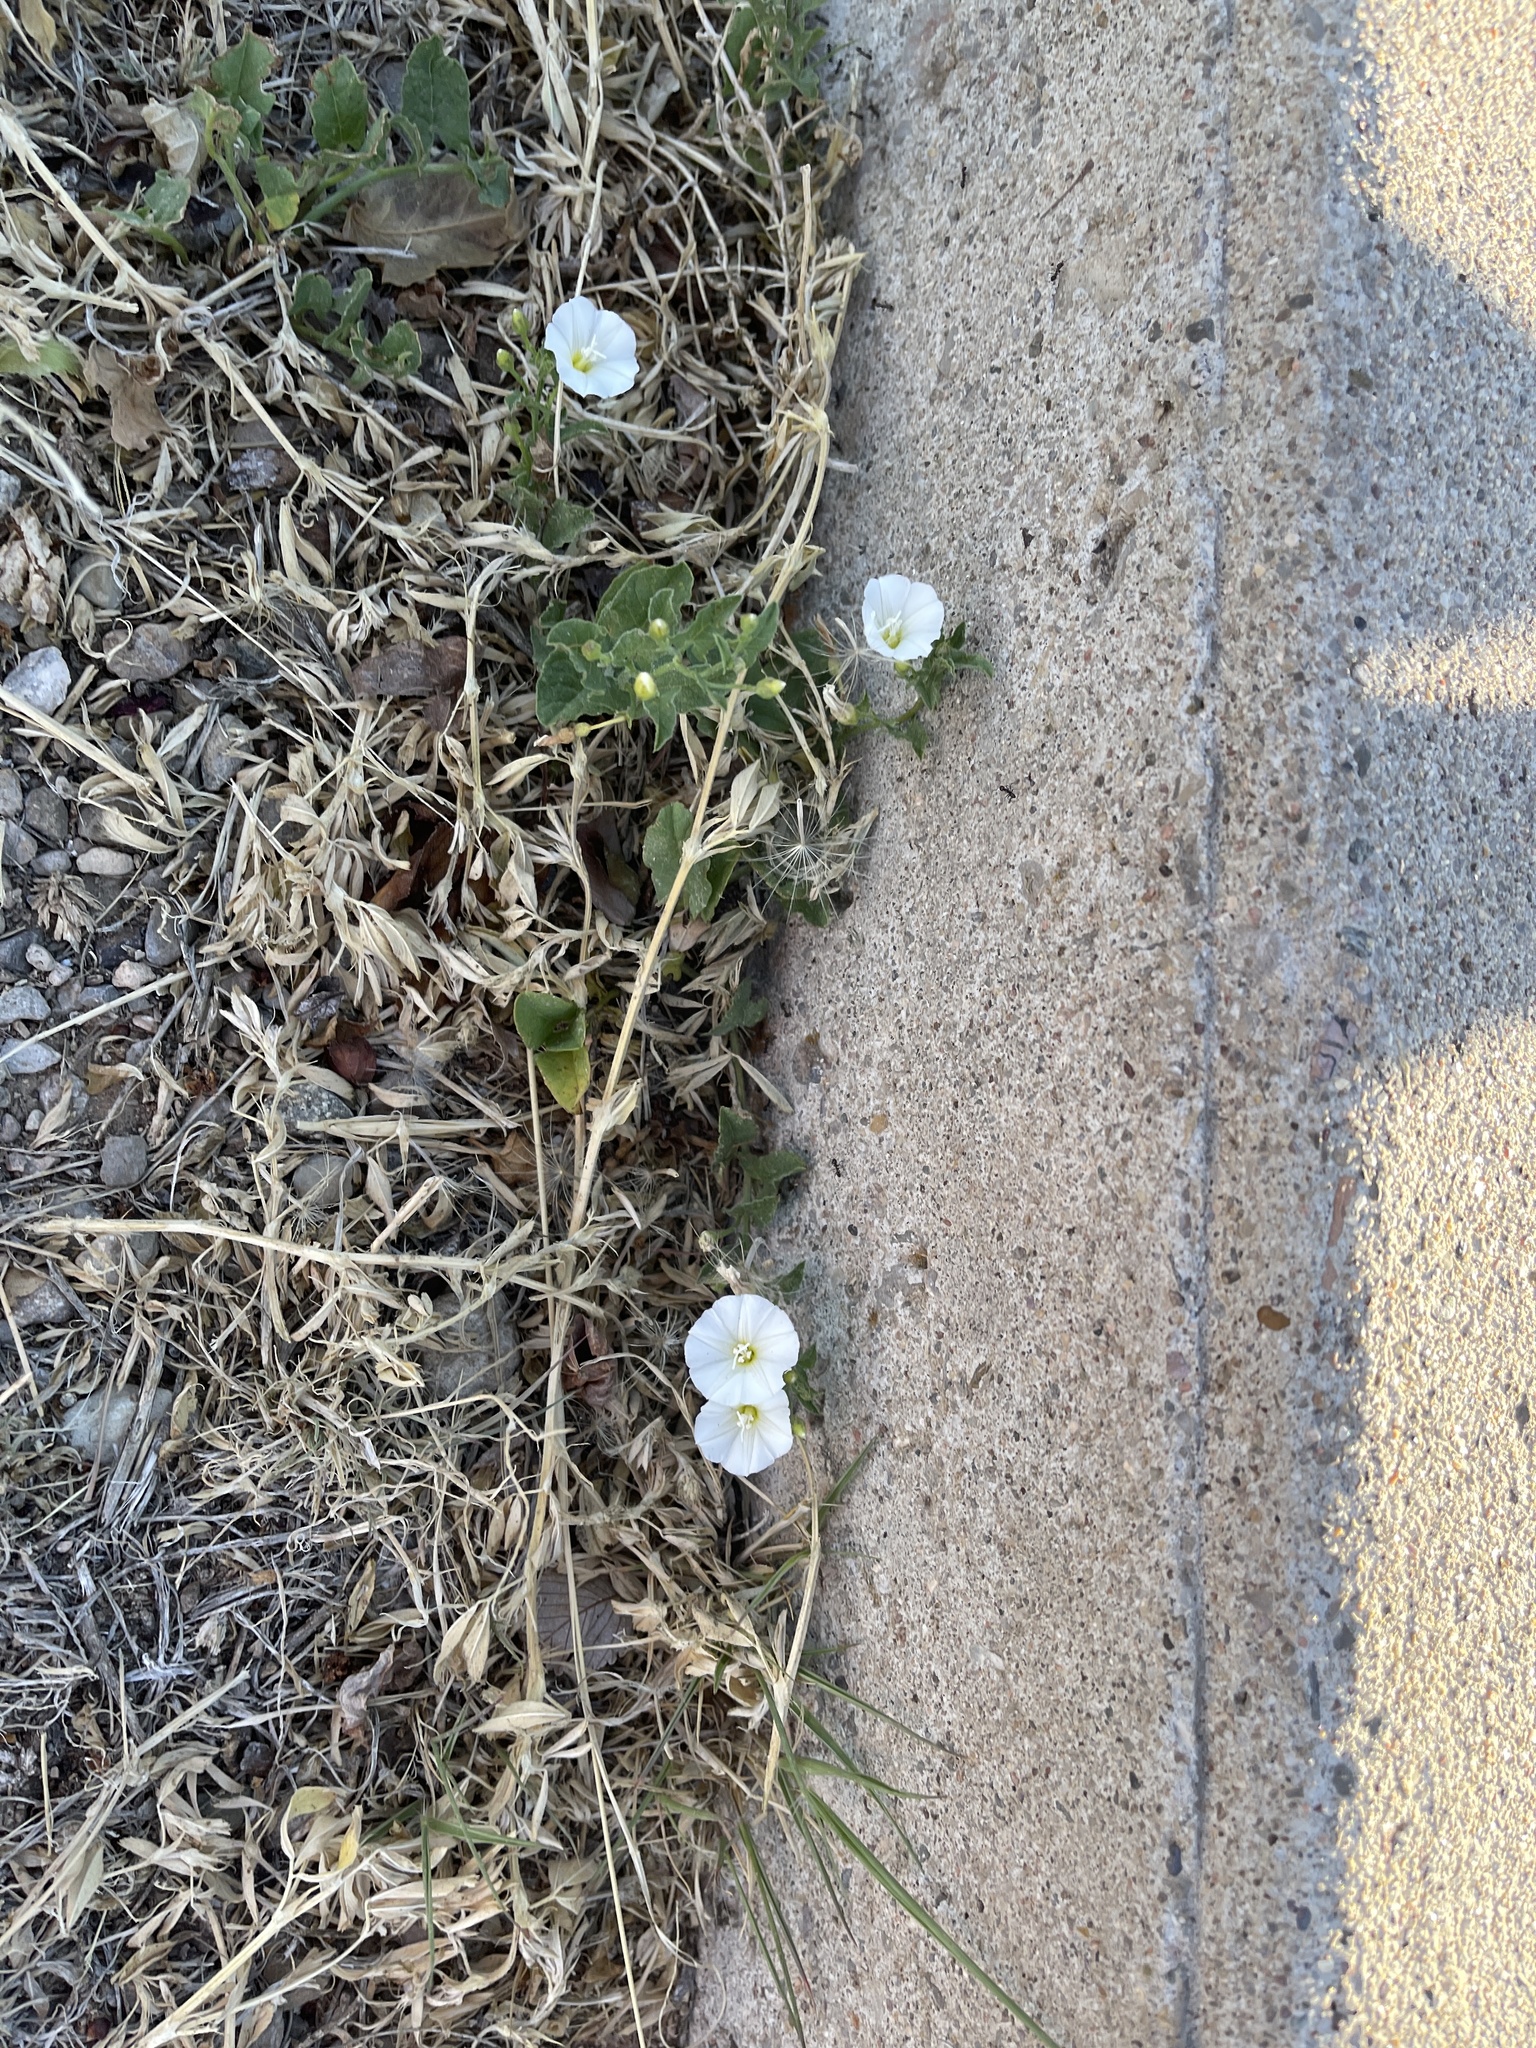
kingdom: Plantae
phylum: Tracheophyta
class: Magnoliopsida
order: Solanales
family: Convolvulaceae
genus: Convolvulus
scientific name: Convolvulus arvensis
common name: Field bindweed
